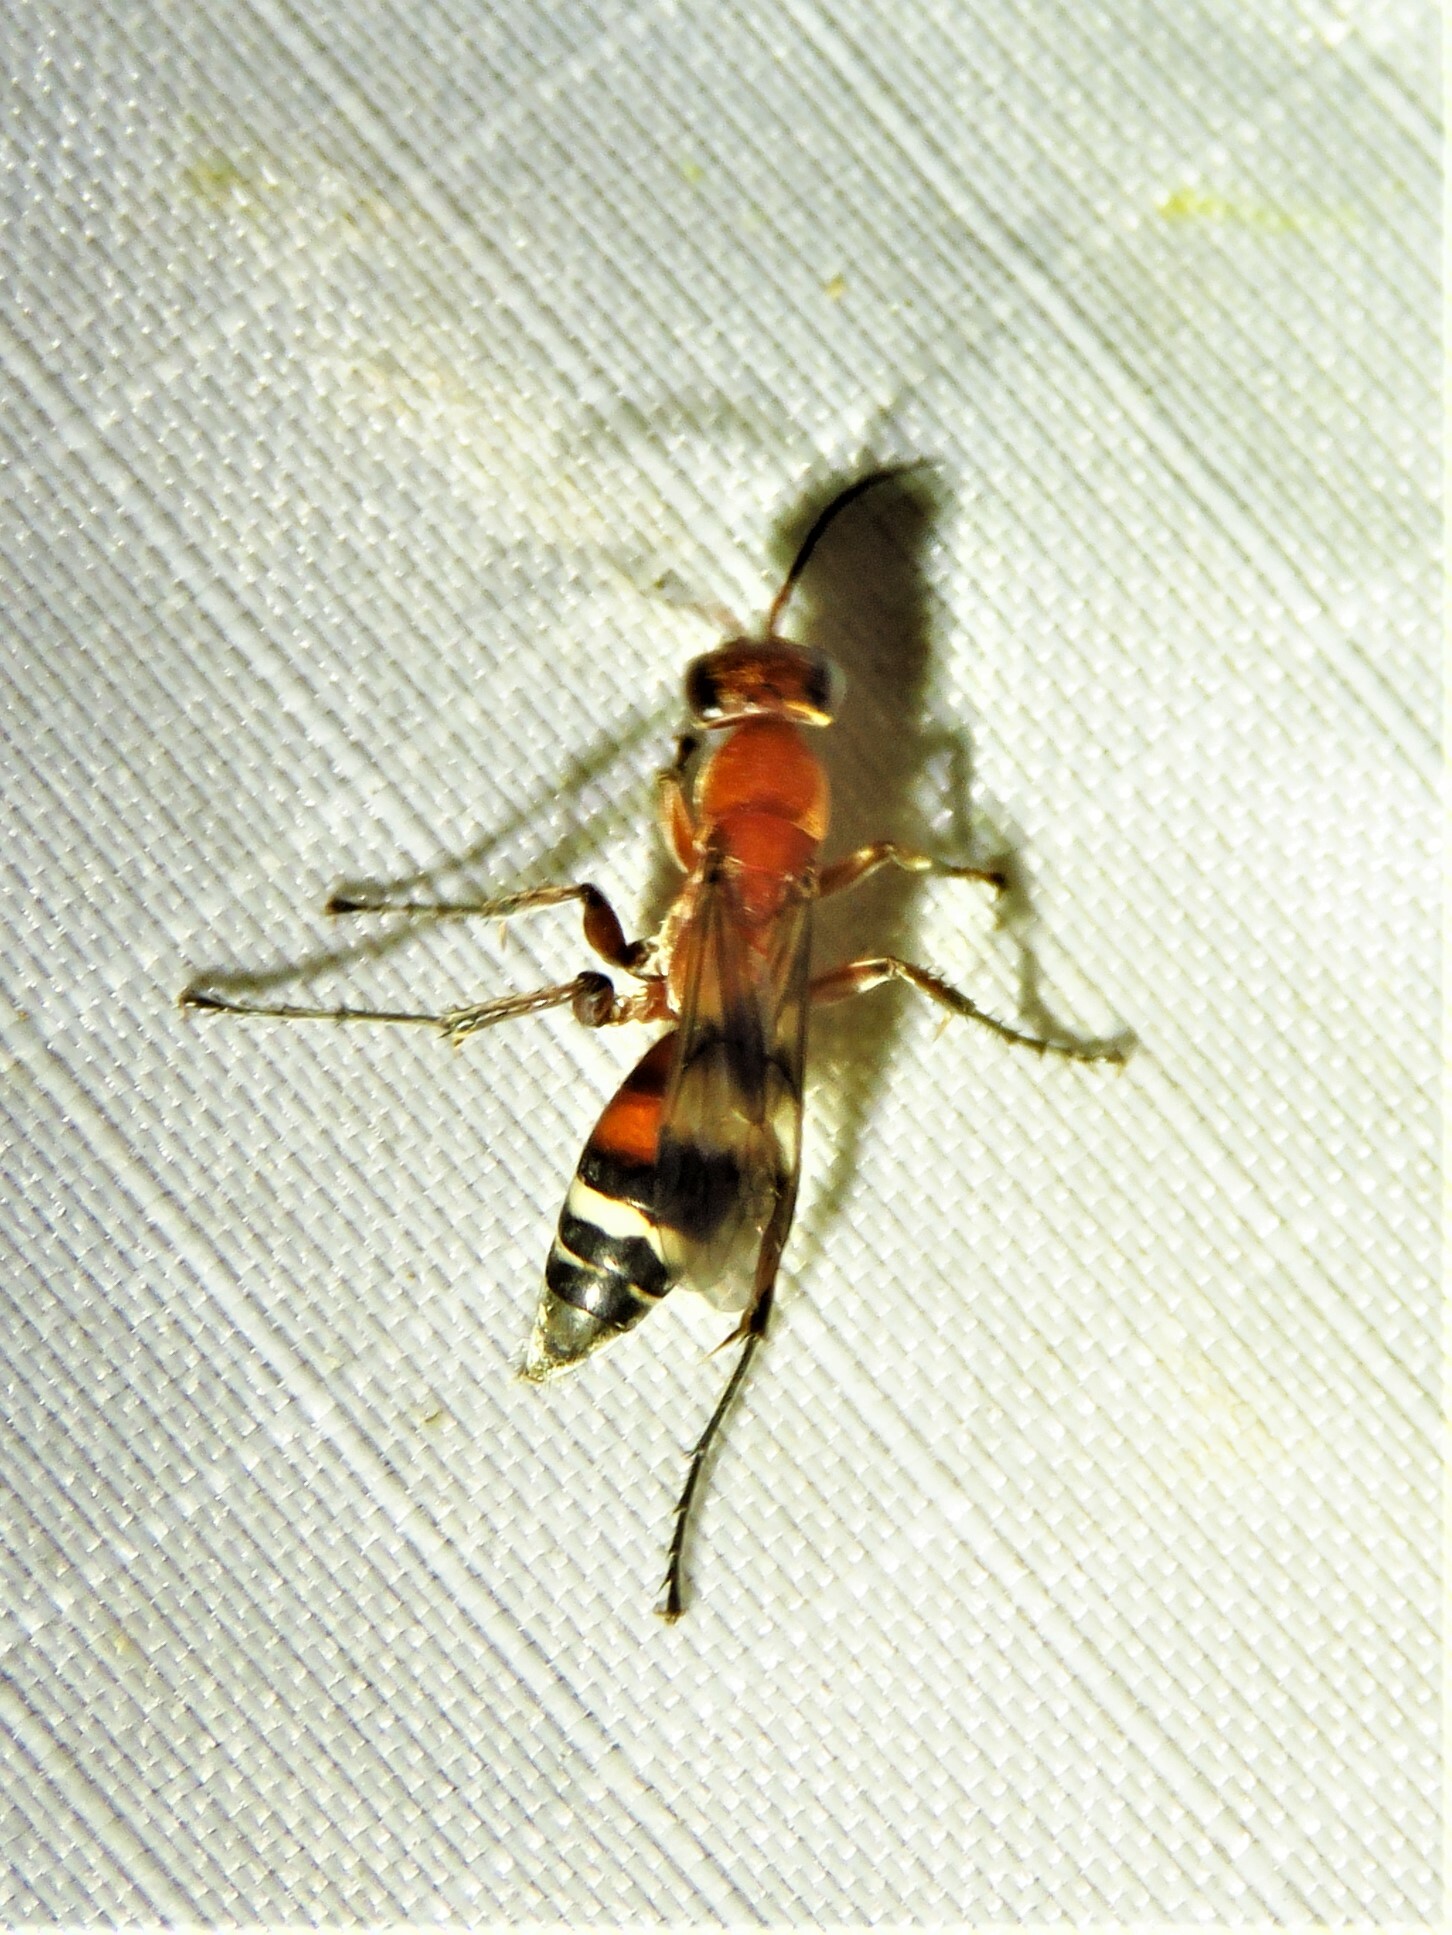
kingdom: Animalia
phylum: Arthropoda
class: Insecta
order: Hymenoptera
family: Pompilidae
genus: Psorthaspis
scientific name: Psorthaspis legata
